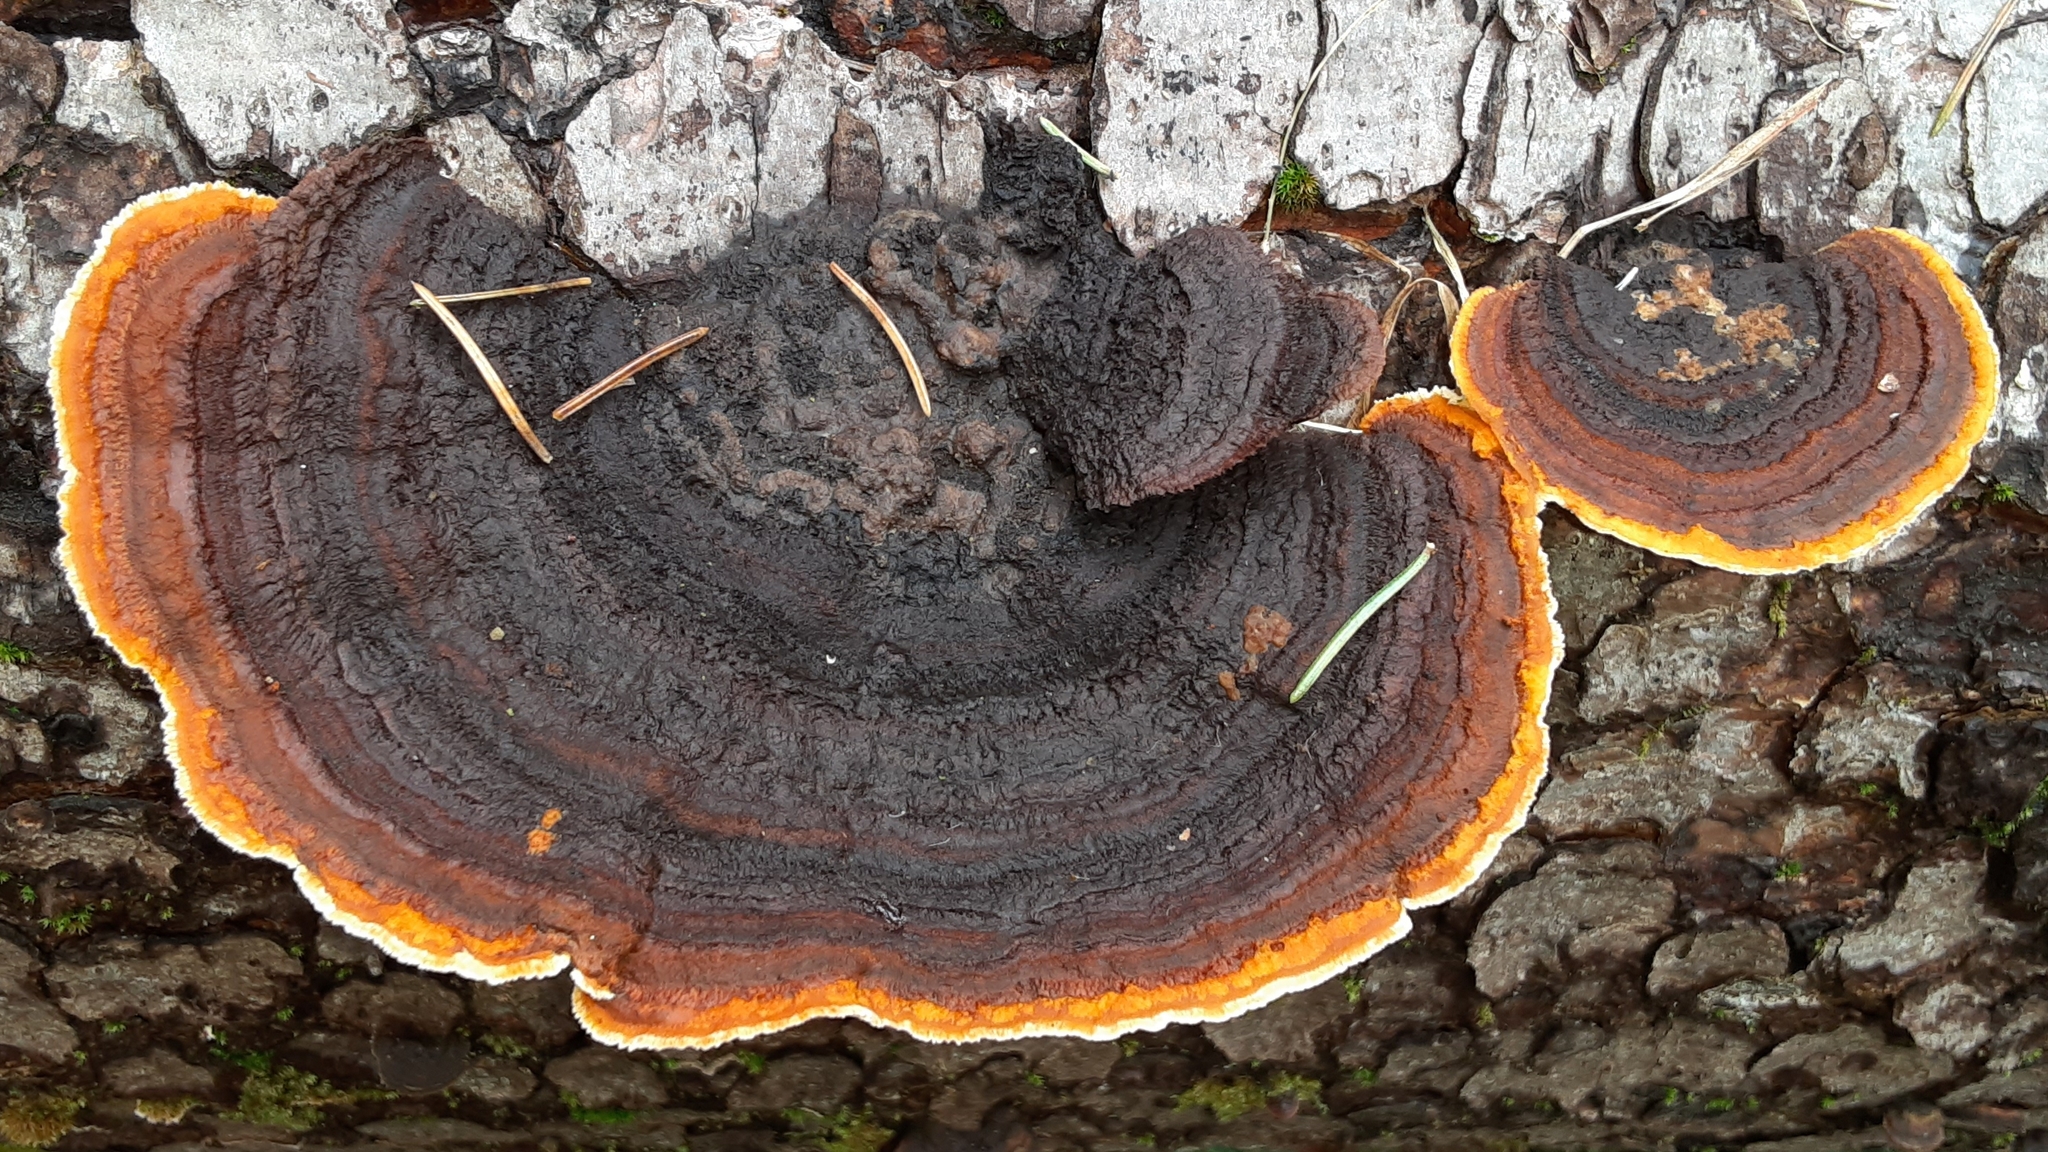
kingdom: Fungi
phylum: Basidiomycota
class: Agaricomycetes
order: Gloeophyllales
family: Gloeophyllaceae
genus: Gloeophyllum
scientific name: Gloeophyllum sepiarium
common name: Conifer mazegill
